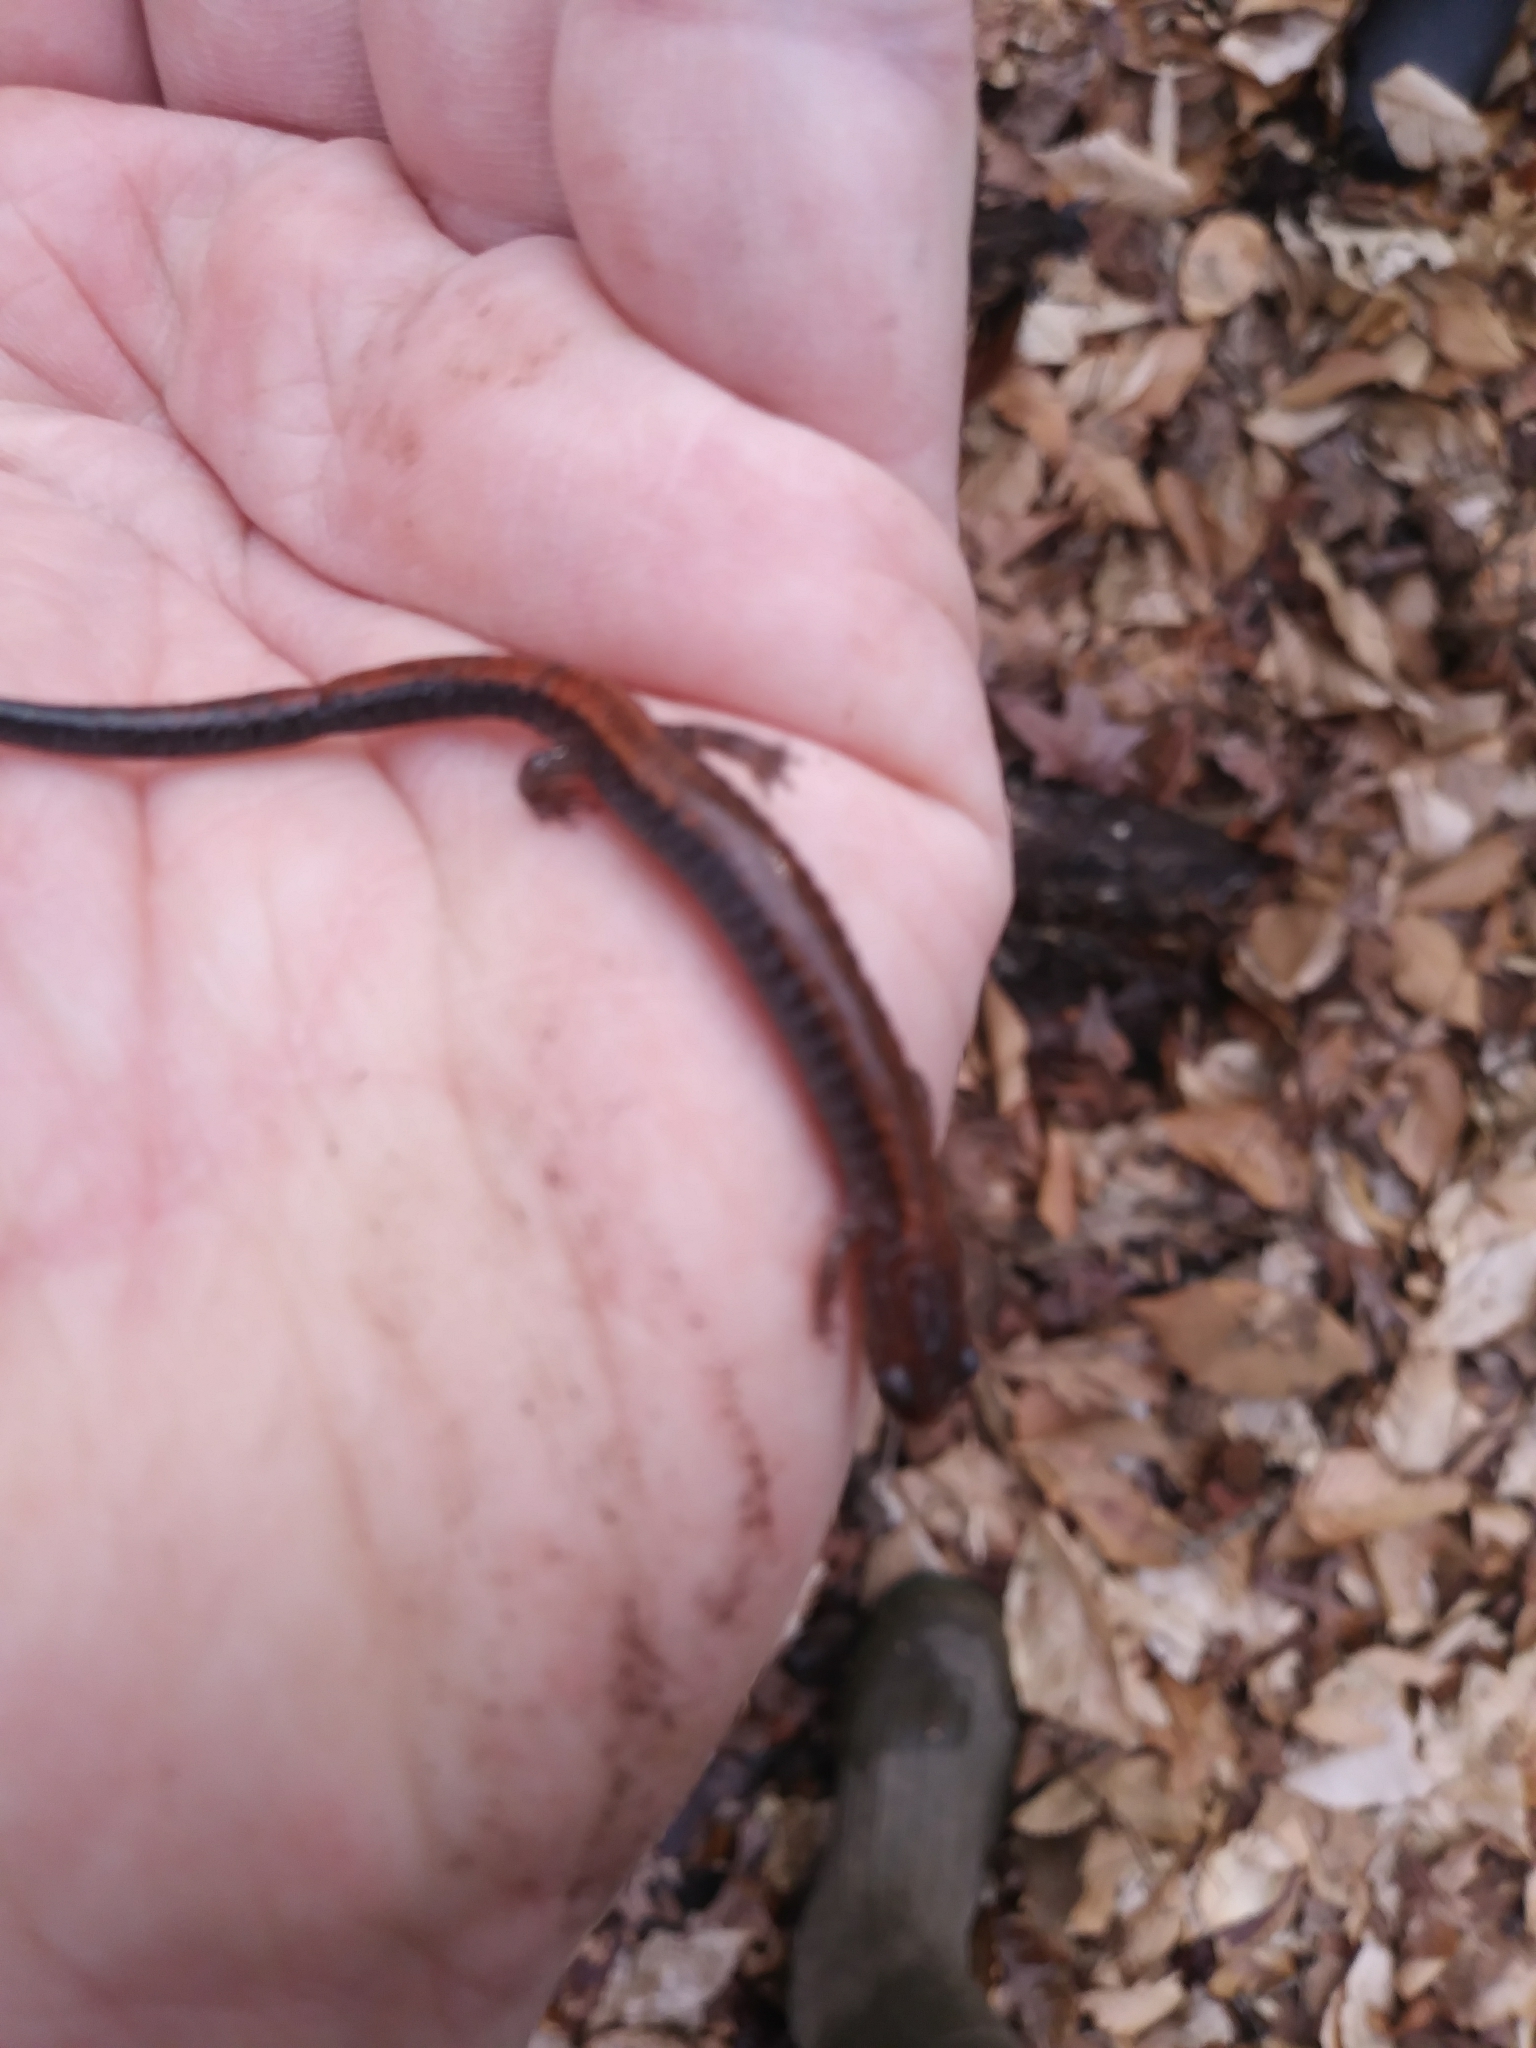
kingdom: Animalia
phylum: Chordata
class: Amphibia
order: Caudata
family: Plethodontidae
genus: Plethodon
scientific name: Plethodon cinereus
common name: Redback salamander
